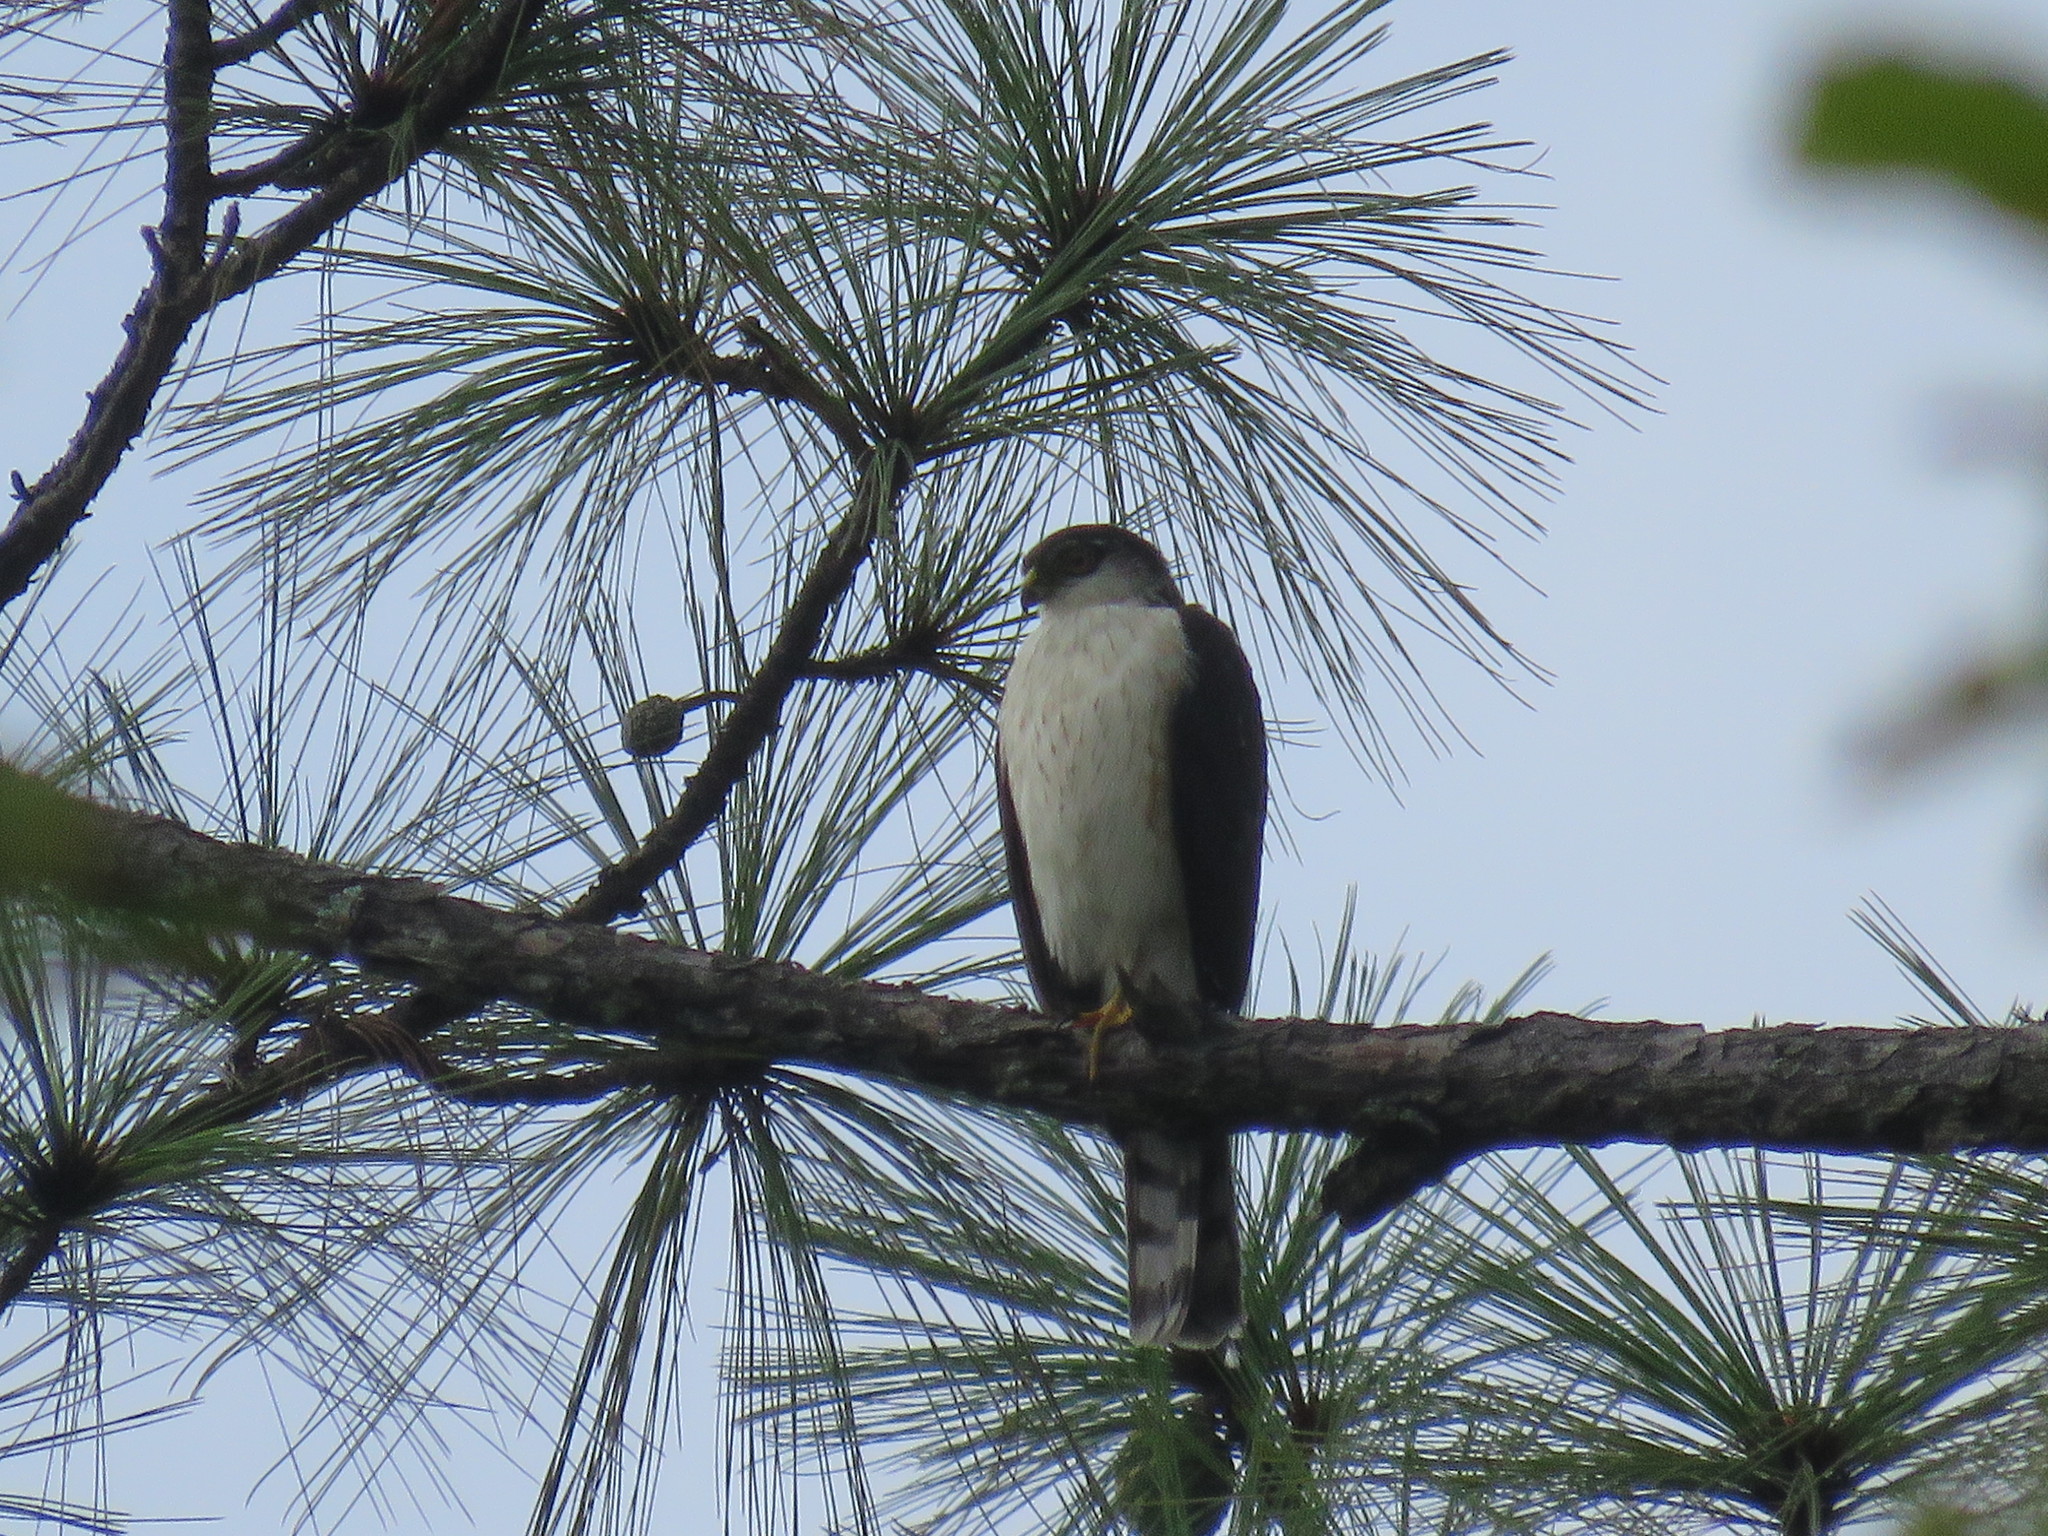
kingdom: Animalia
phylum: Chordata
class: Aves
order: Accipitriformes
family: Accipitridae
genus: Accipiter
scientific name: Accipiter striatus
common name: Sharp-shinned hawk
